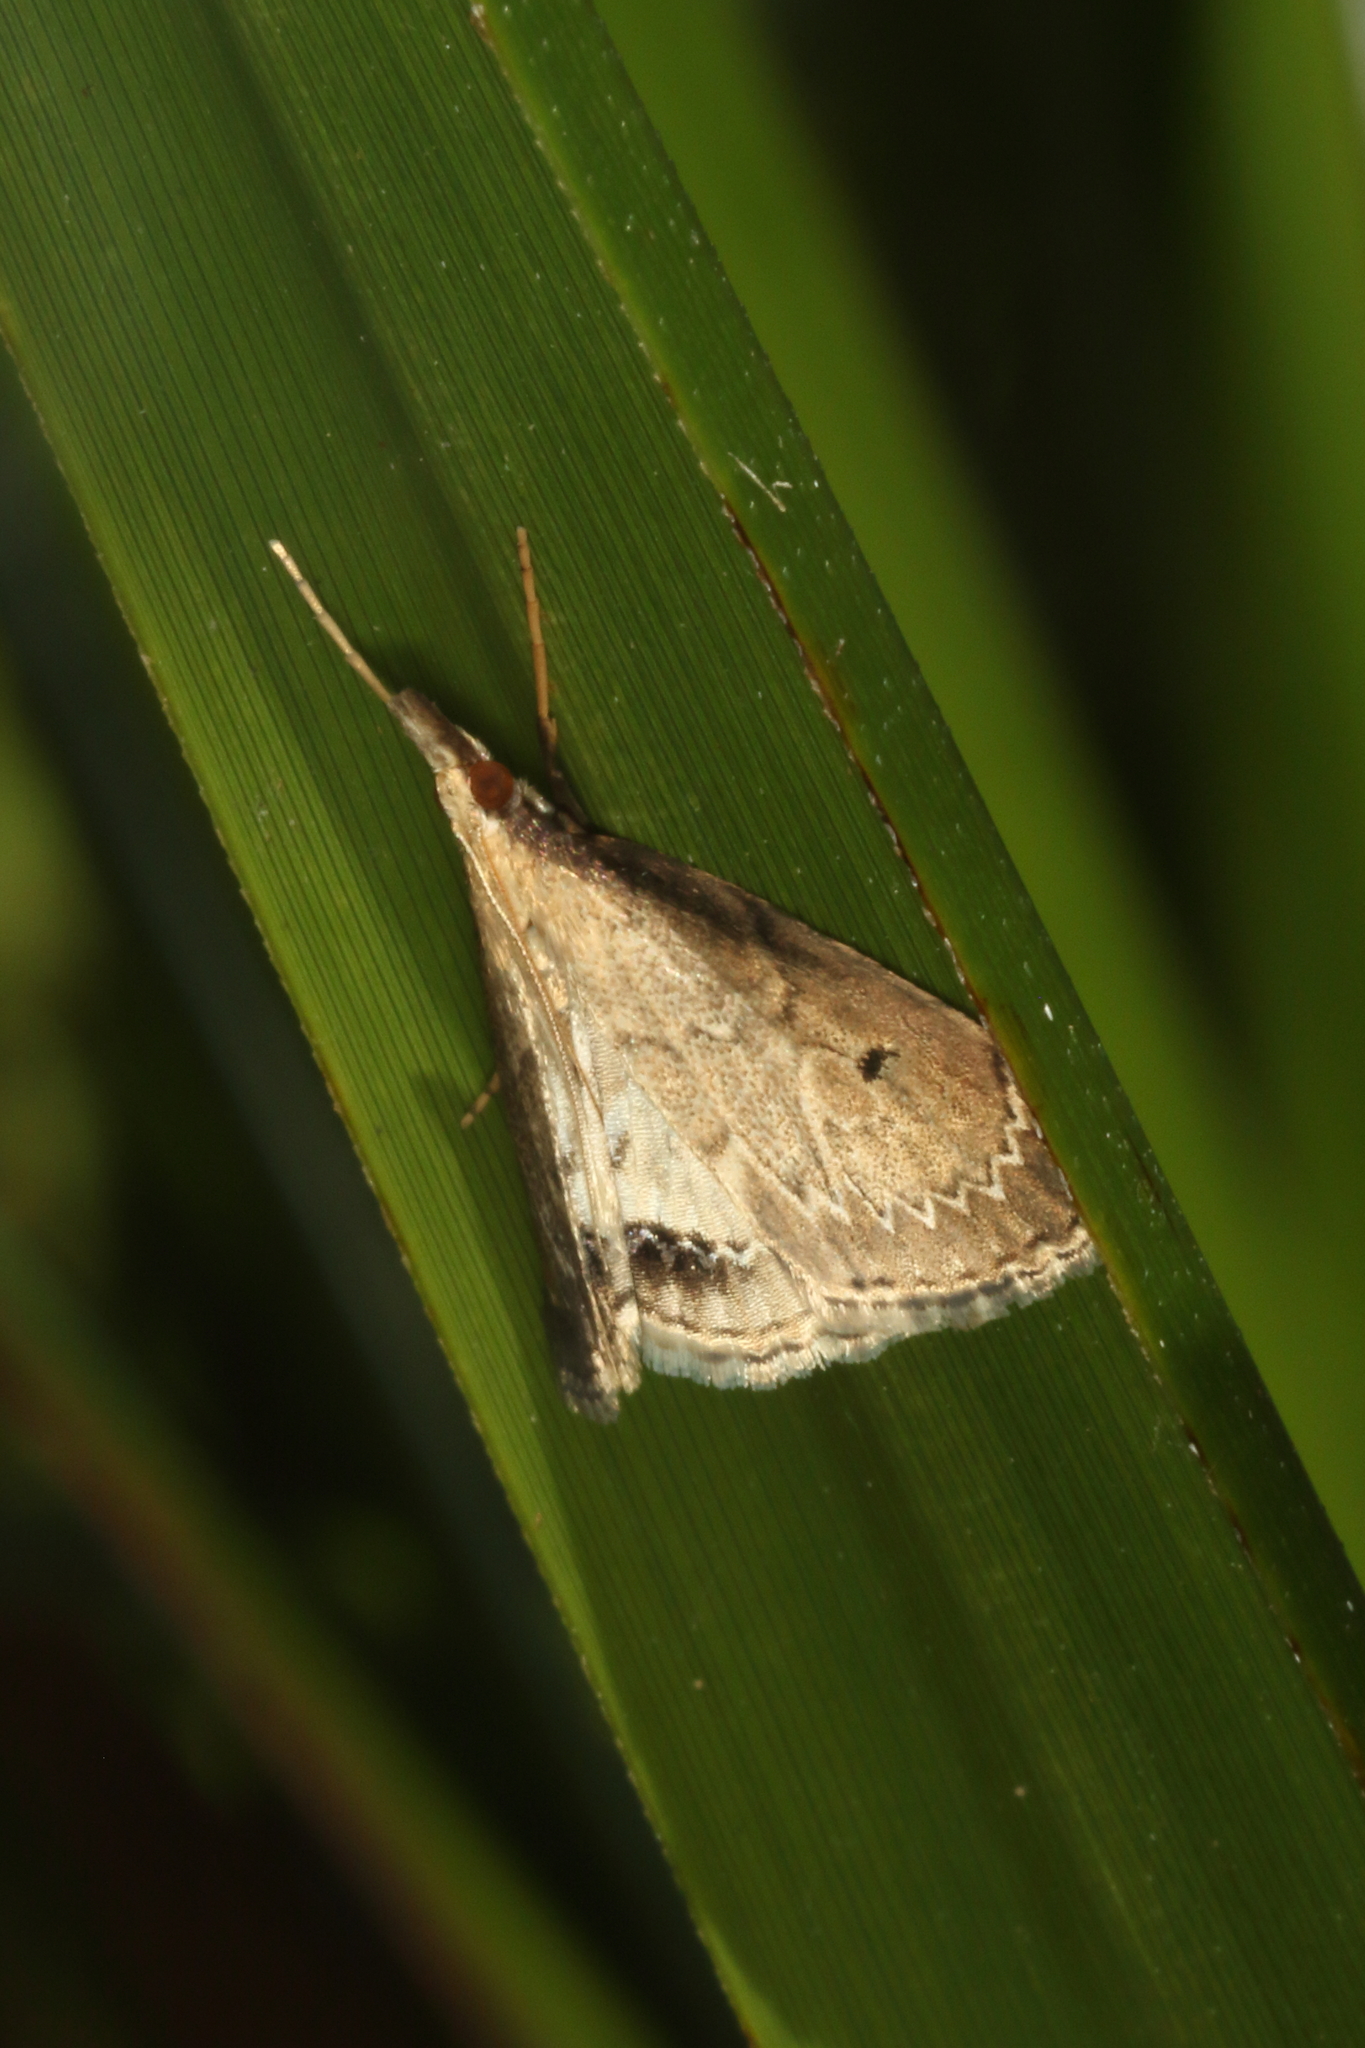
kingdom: Animalia
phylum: Arthropoda
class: Insecta
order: Lepidoptera
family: Crambidae
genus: Clepsicosma
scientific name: Clepsicosma iridia
